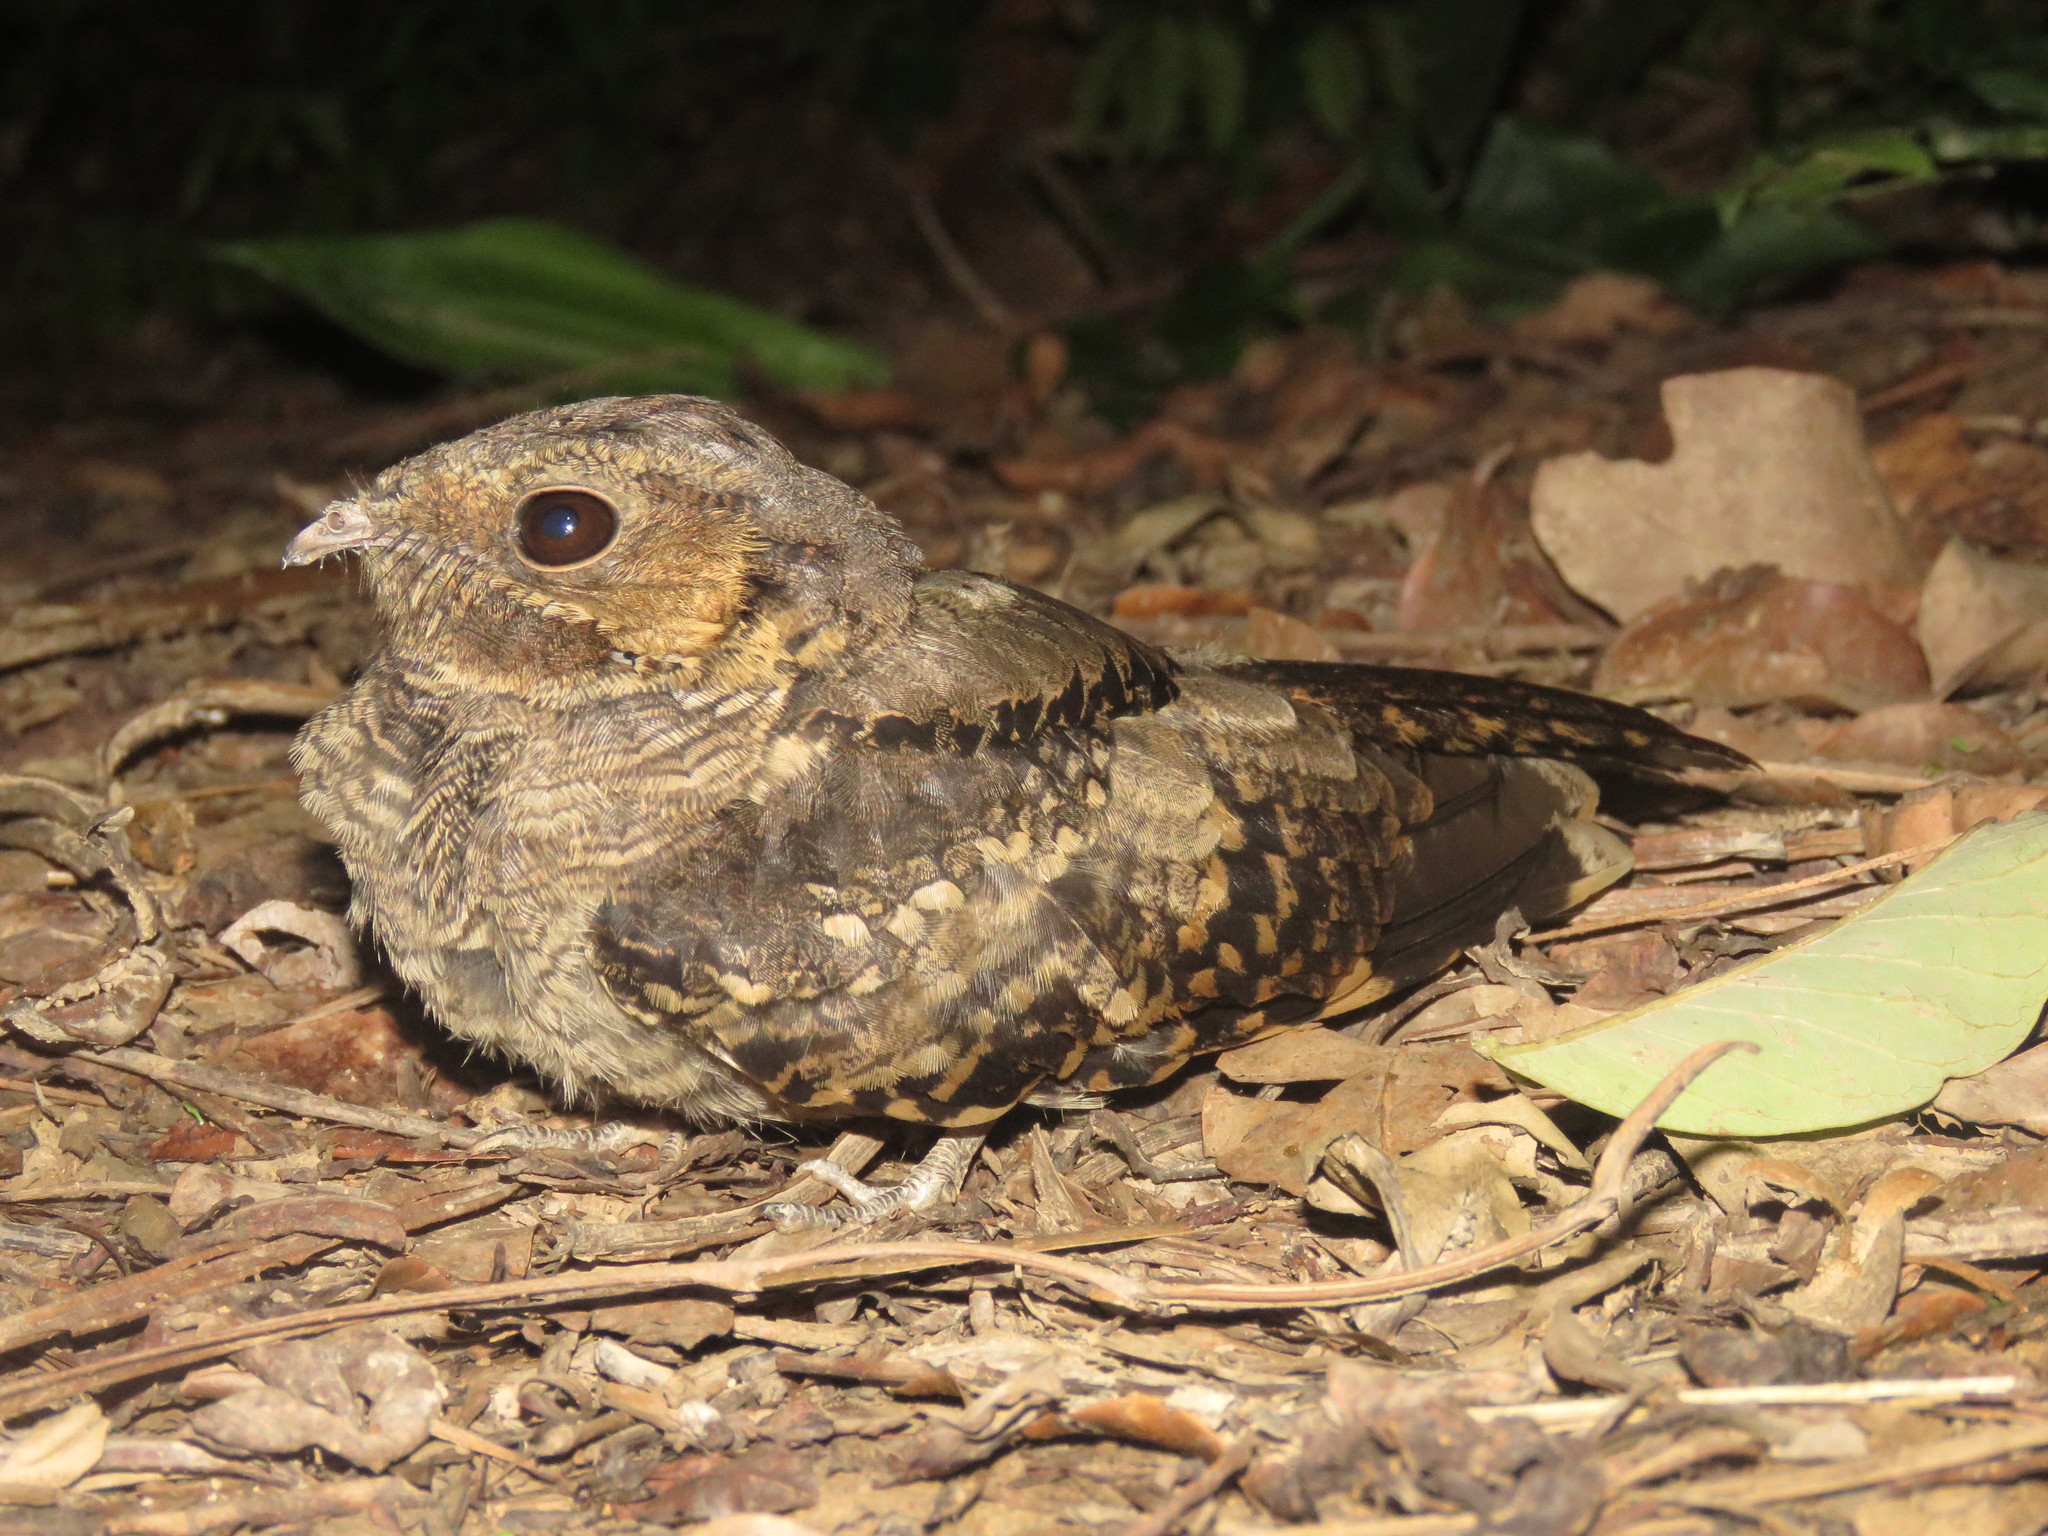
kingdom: Animalia
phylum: Chordata
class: Aves
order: Caprimulgiformes
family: Caprimulgidae
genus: Nyctidromus
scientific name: Nyctidromus albicollis
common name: Pauraque
